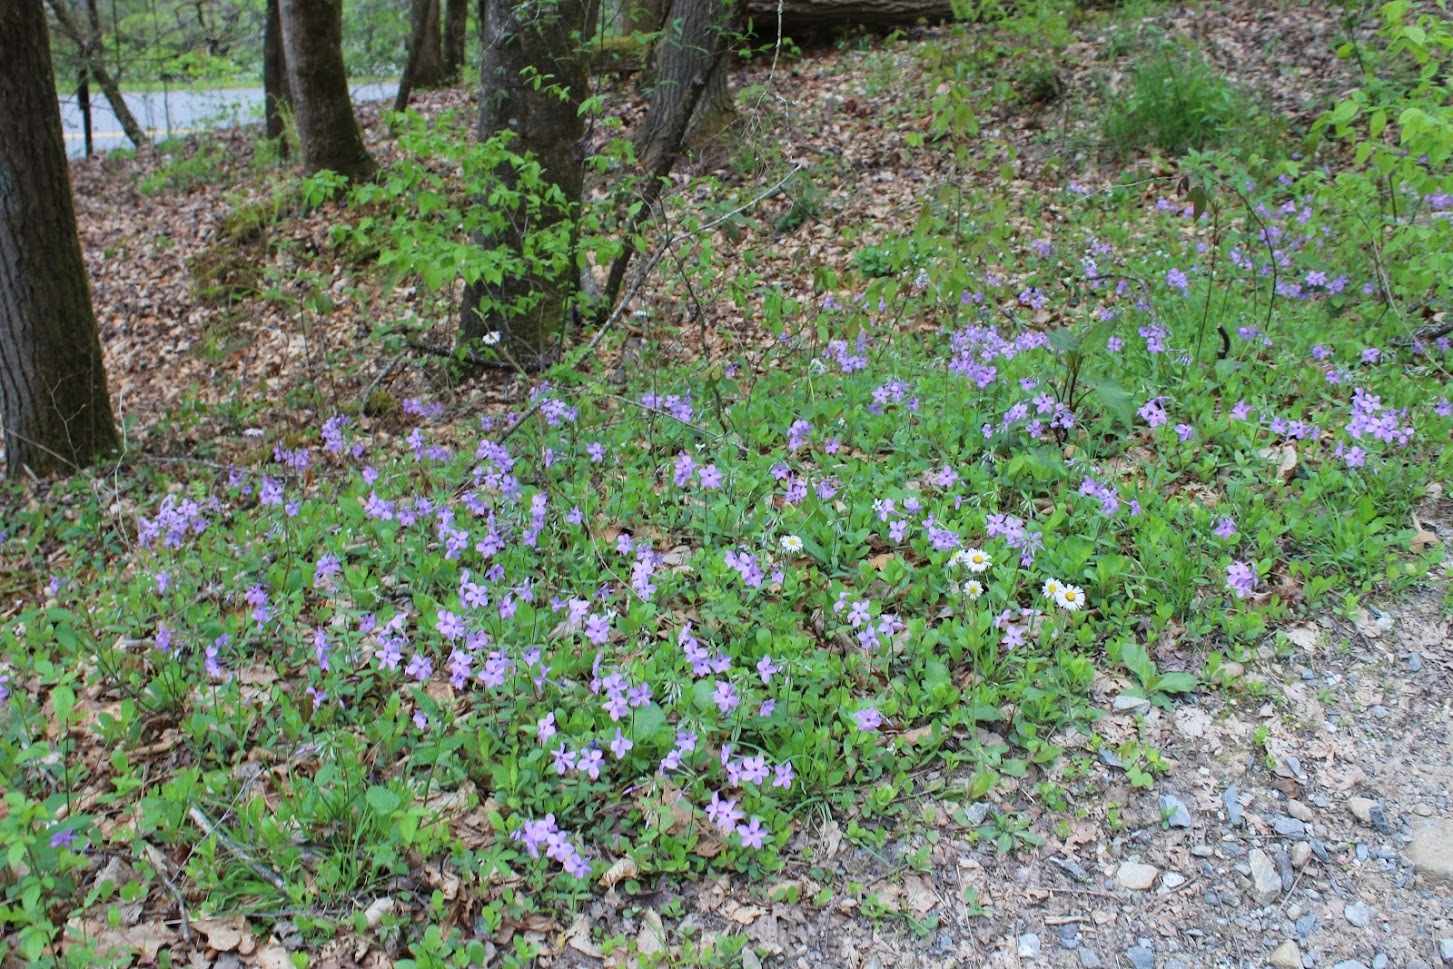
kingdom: Plantae
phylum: Tracheophyta
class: Magnoliopsida
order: Ericales
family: Polemoniaceae
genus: Phlox
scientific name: Phlox stolonifera
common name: Creeping phlox
